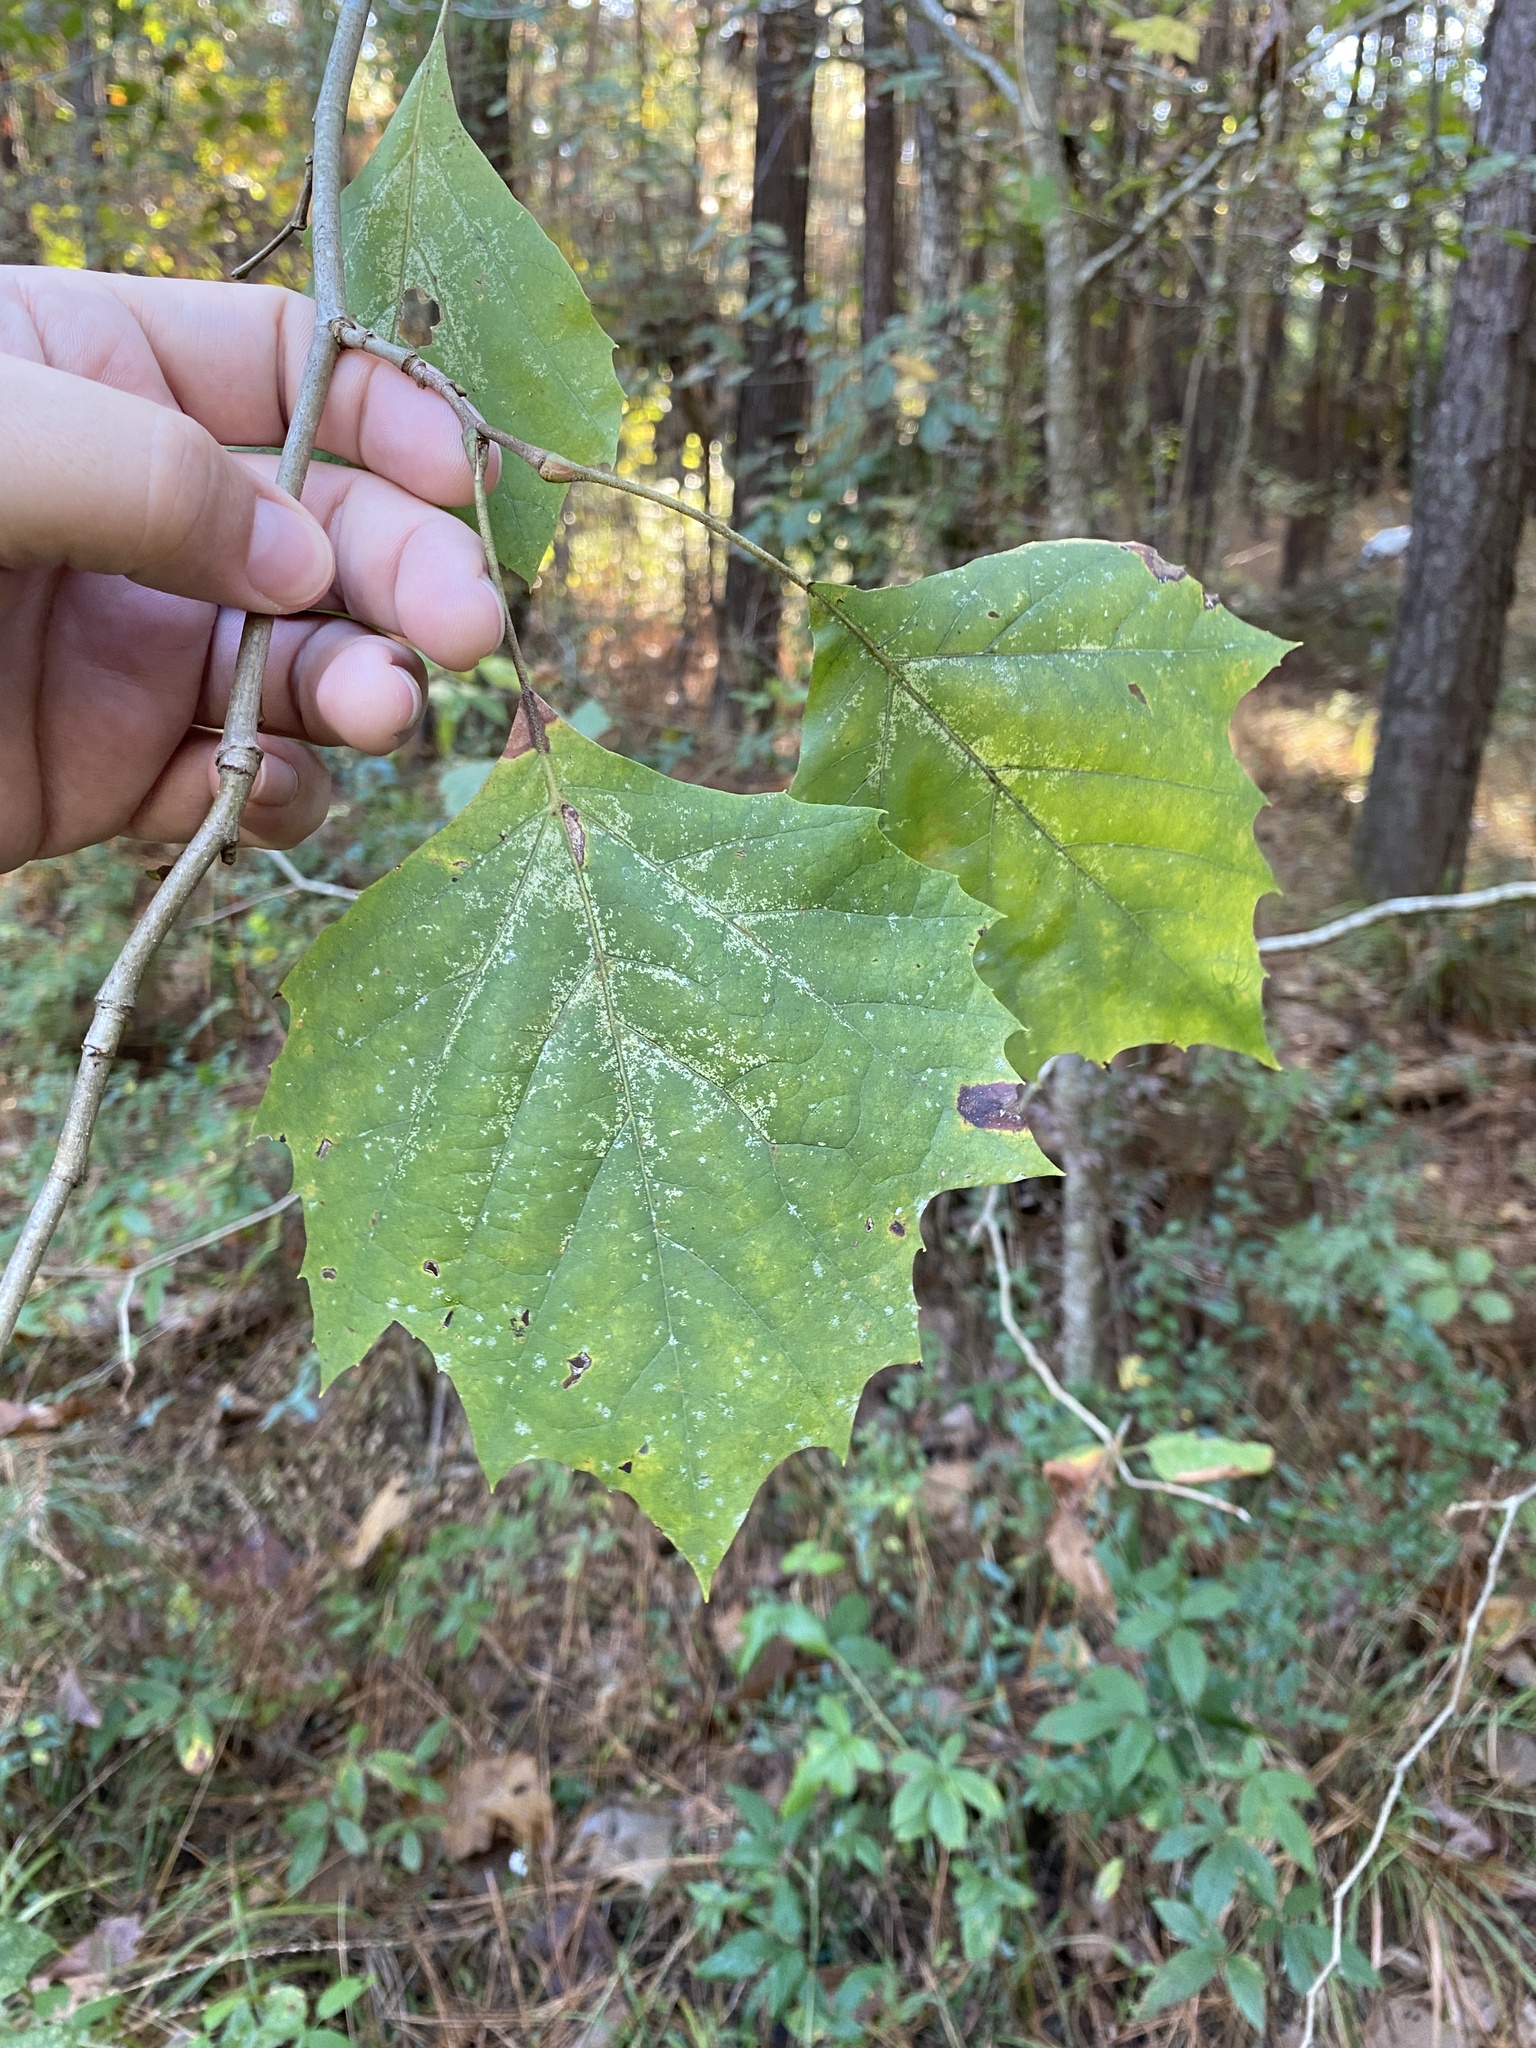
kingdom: Plantae
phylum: Tracheophyta
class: Magnoliopsida
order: Proteales
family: Platanaceae
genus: Platanus
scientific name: Platanus occidentalis
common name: American sycamore
